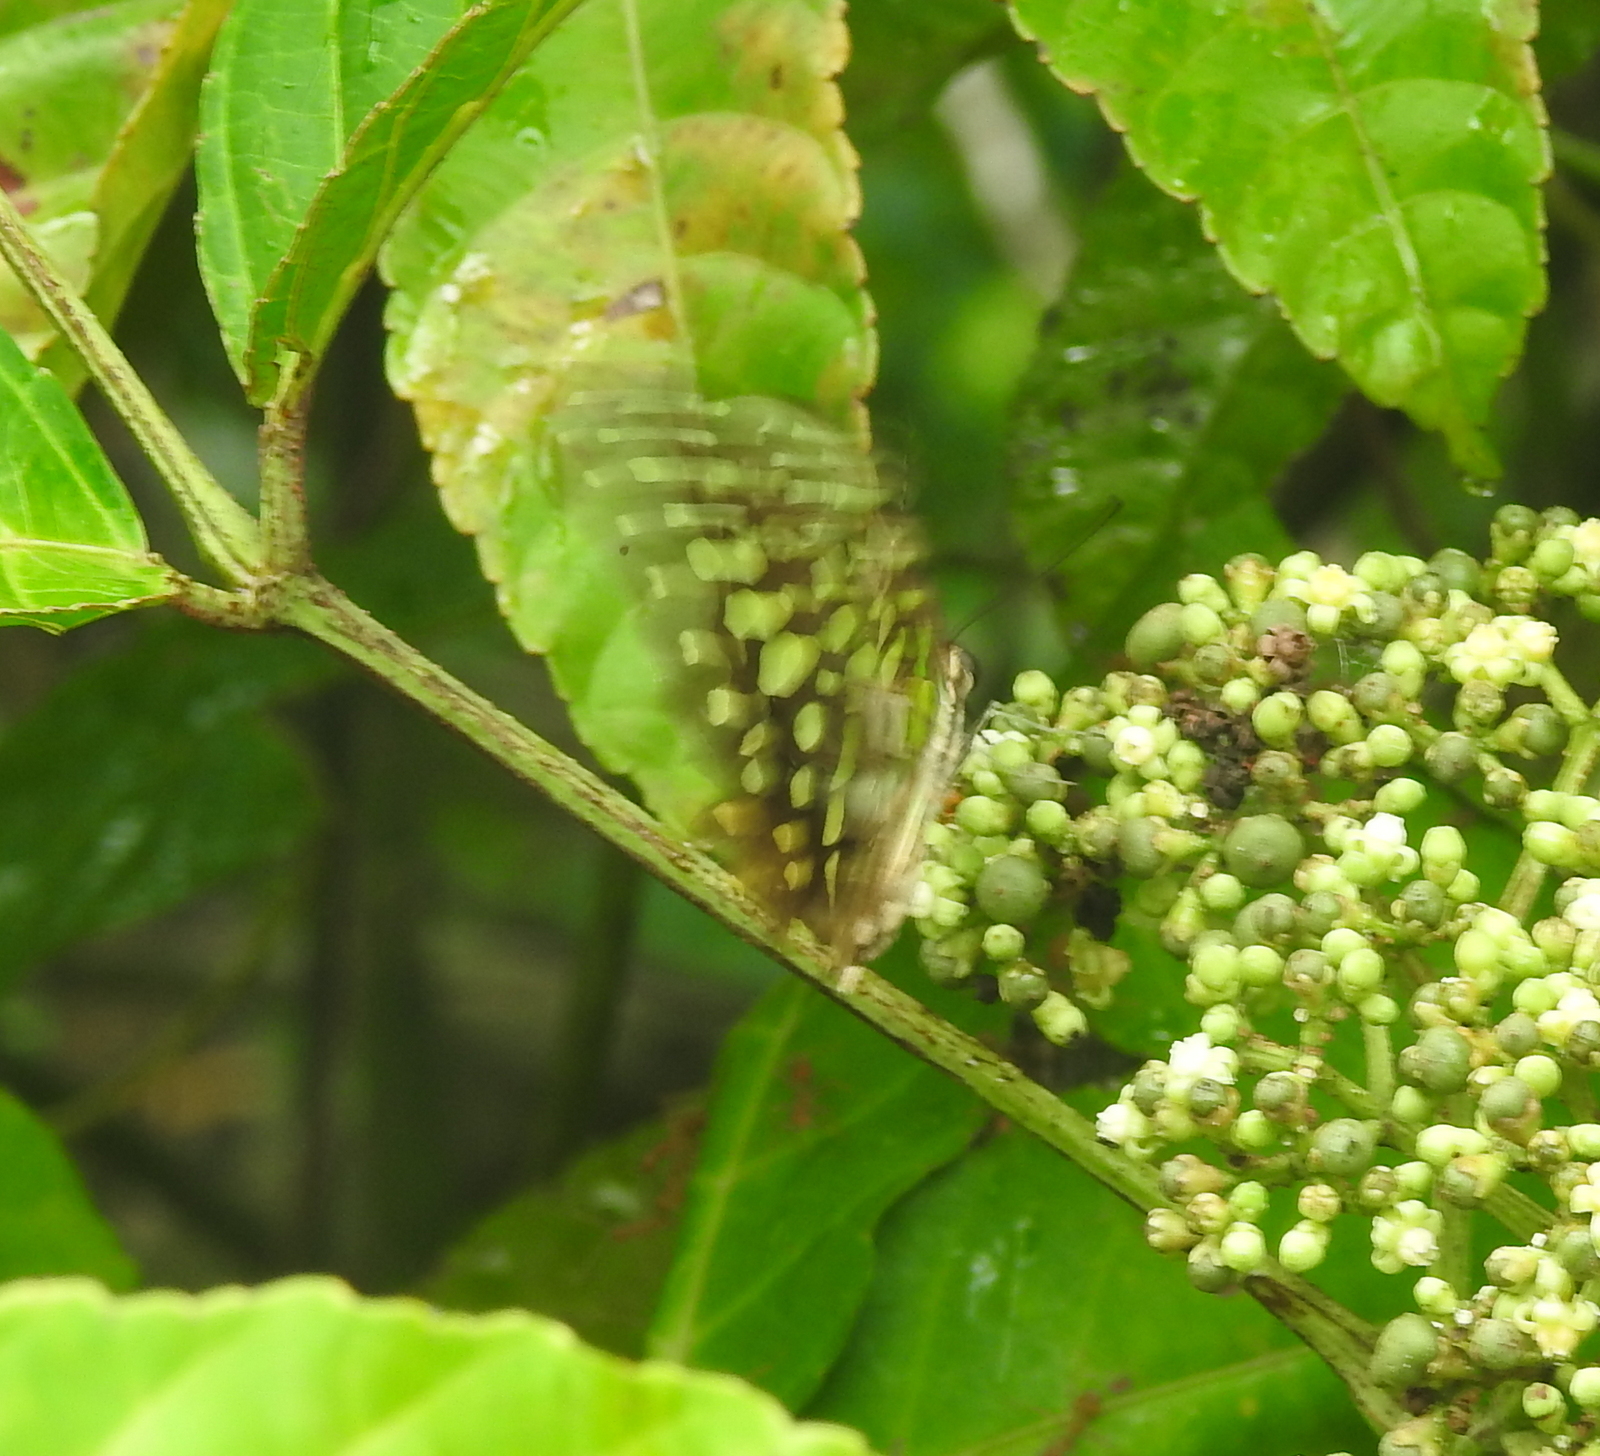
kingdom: Animalia
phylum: Arthropoda
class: Insecta
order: Lepidoptera
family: Papilionidae
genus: Graphium
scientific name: Graphium agamemnon
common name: Tailed jay
